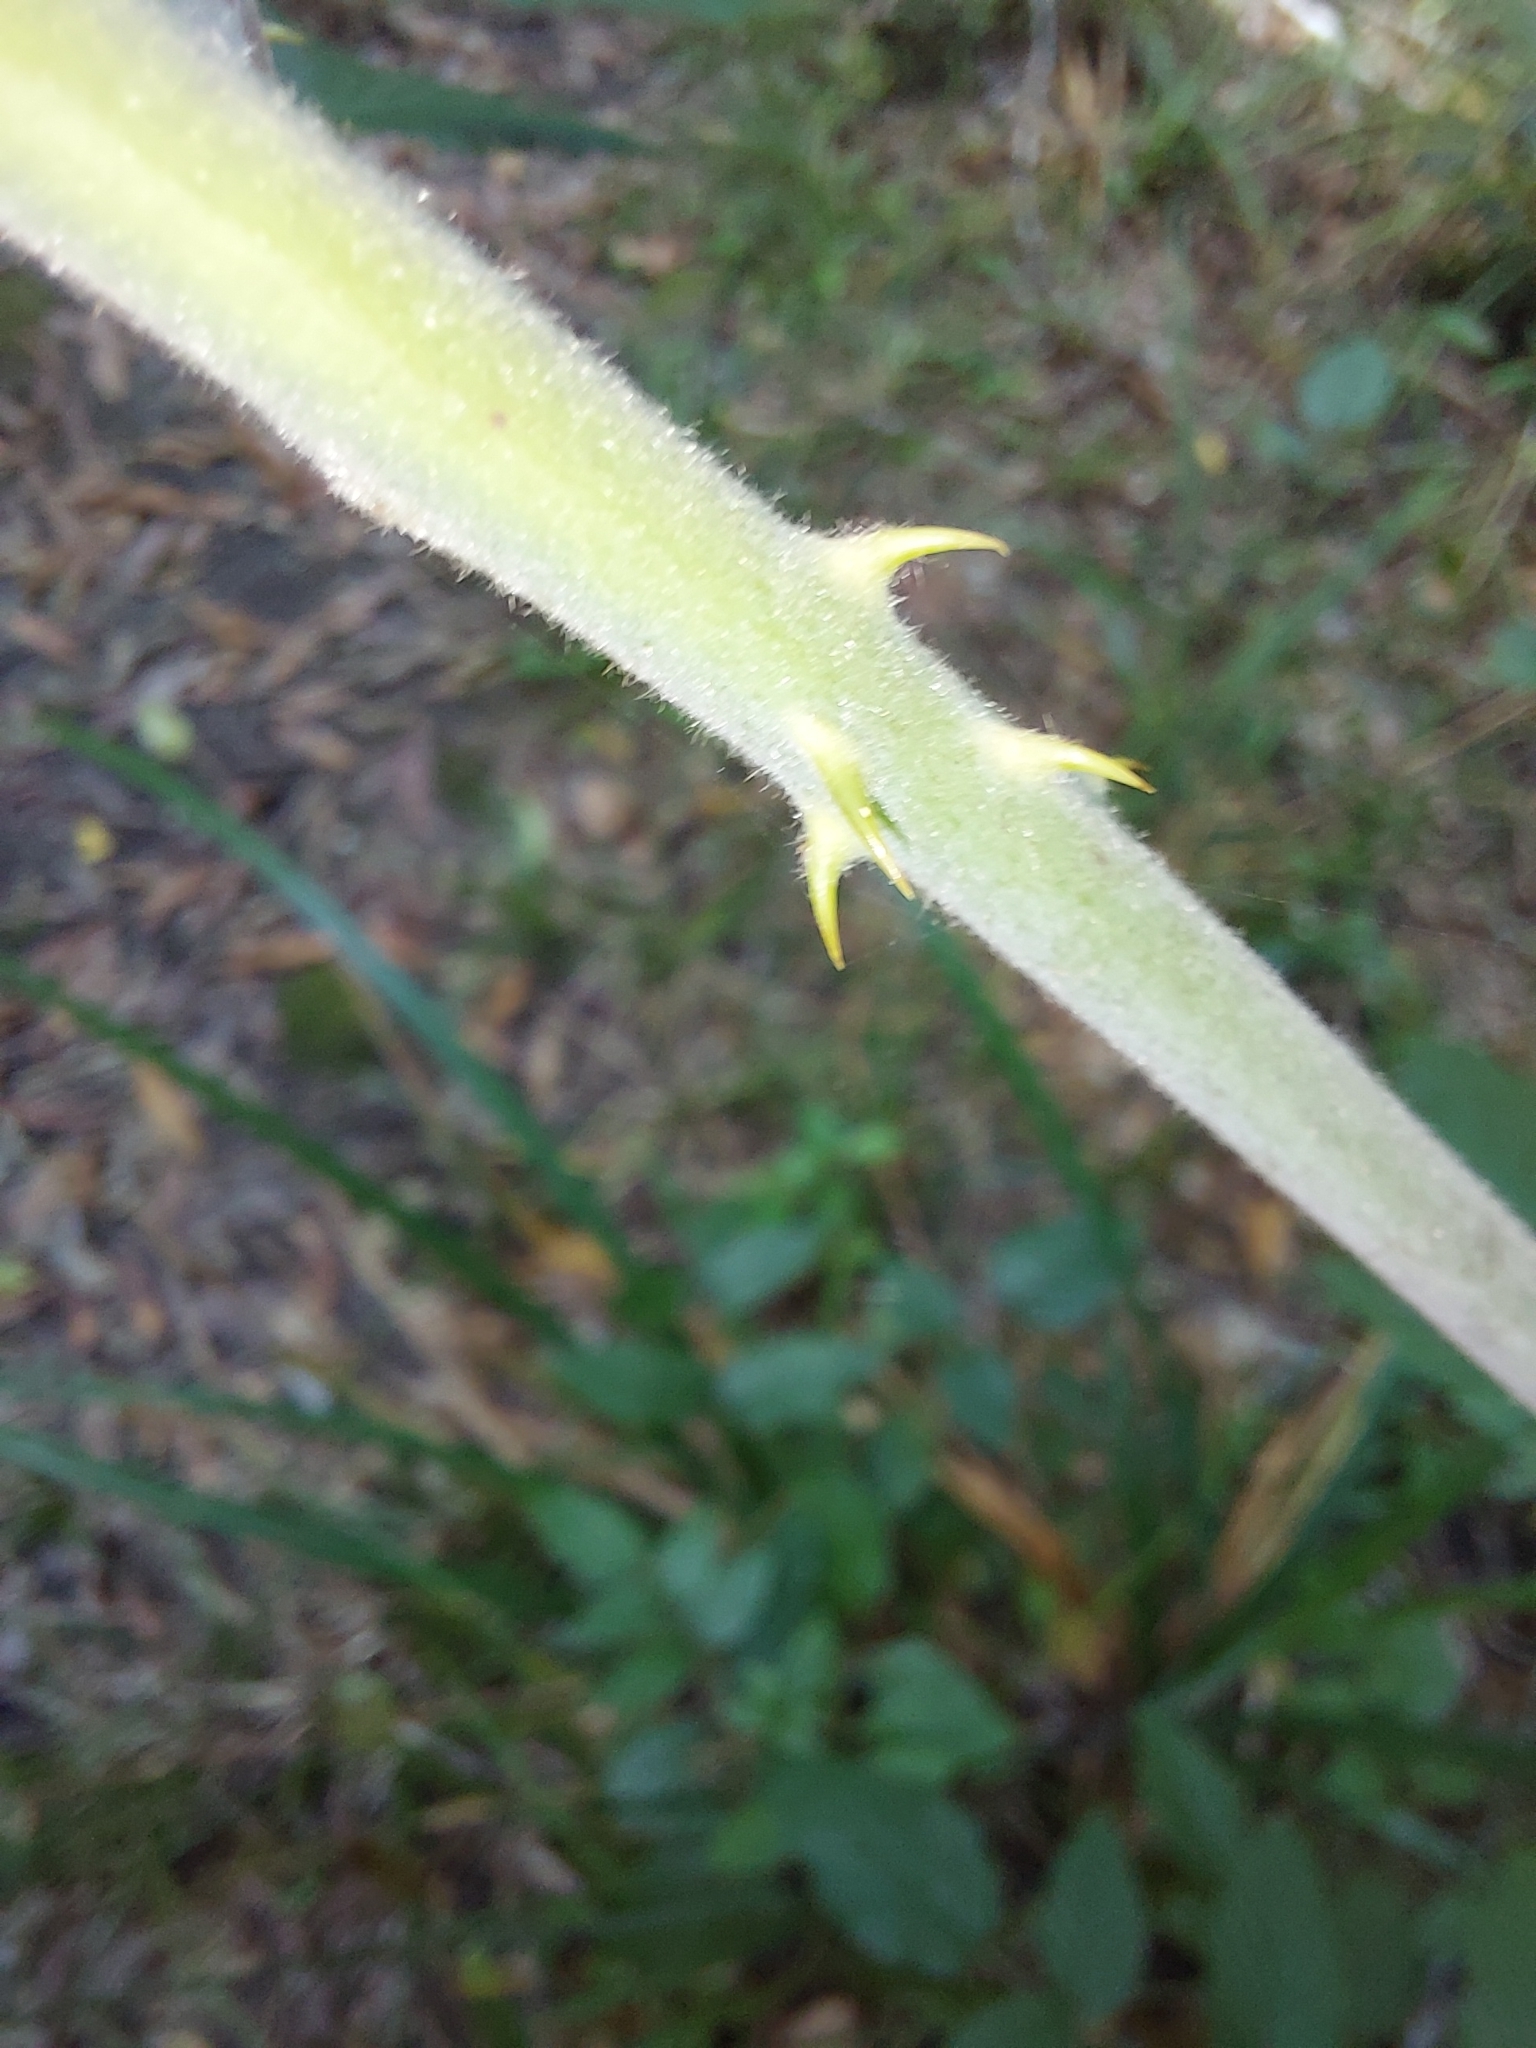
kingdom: Plantae
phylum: Tracheophyta
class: Magnoliopsida
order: Rosales
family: Rosaceae
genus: Rubus
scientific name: Rubus pinnatus
